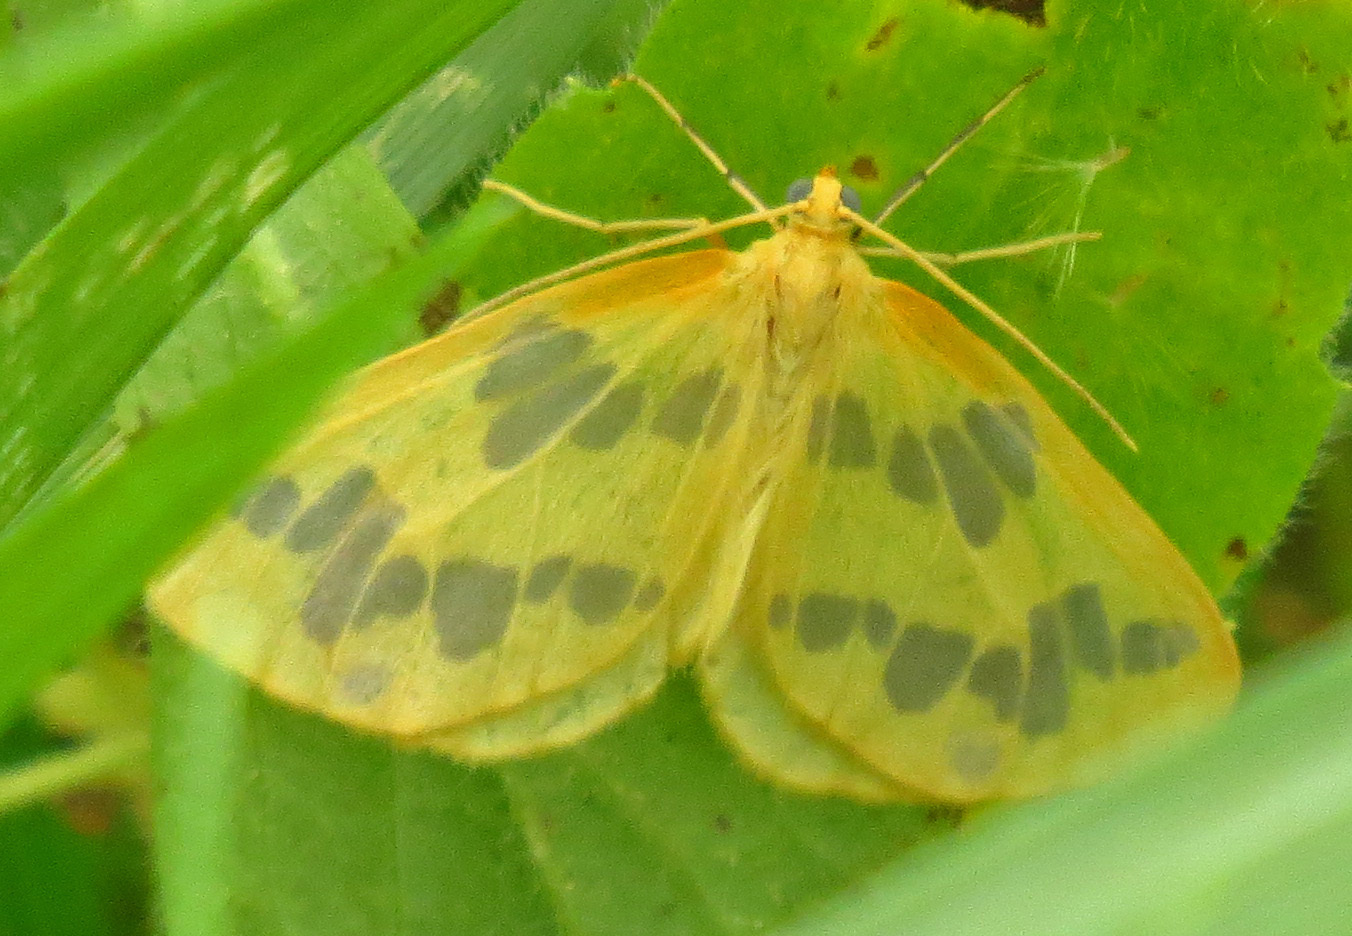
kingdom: Animalia
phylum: Arthropoda
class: Insecta
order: Lepidoptera
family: Geometridae
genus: Eubaphe
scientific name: Eubaphe mendica
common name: Beggar
